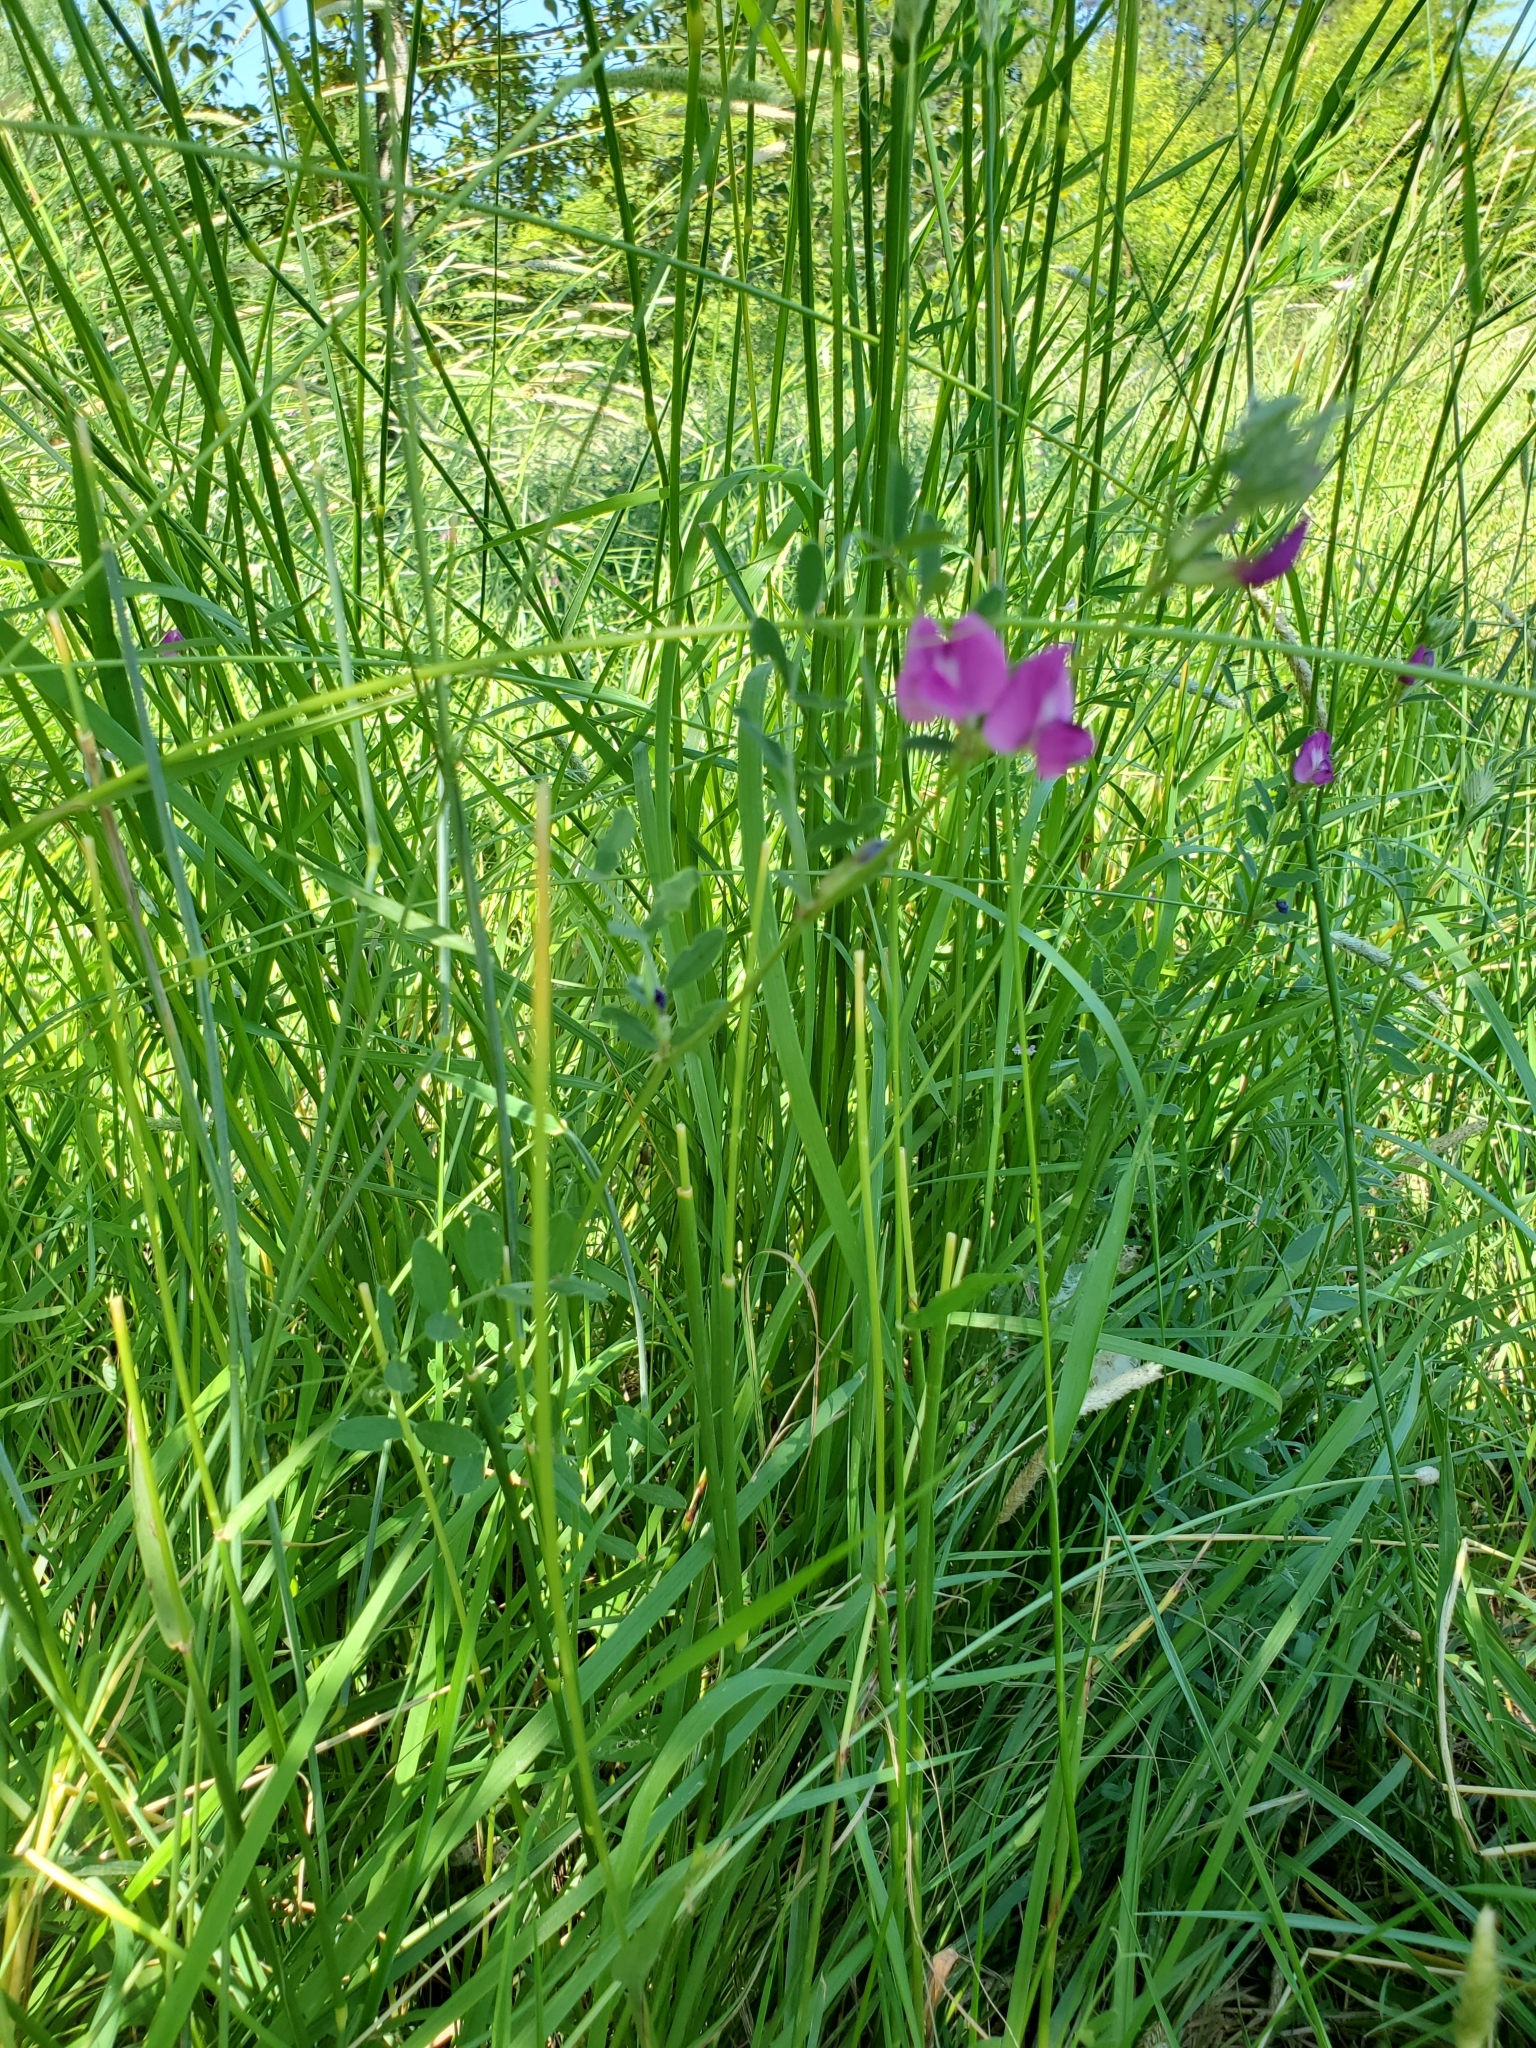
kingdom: Plantae
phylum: Tracheophyta
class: Magnoliopsida
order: Fabales
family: Fabaceae
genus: Vicia
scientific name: Vicia sativa
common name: Garden vetch
